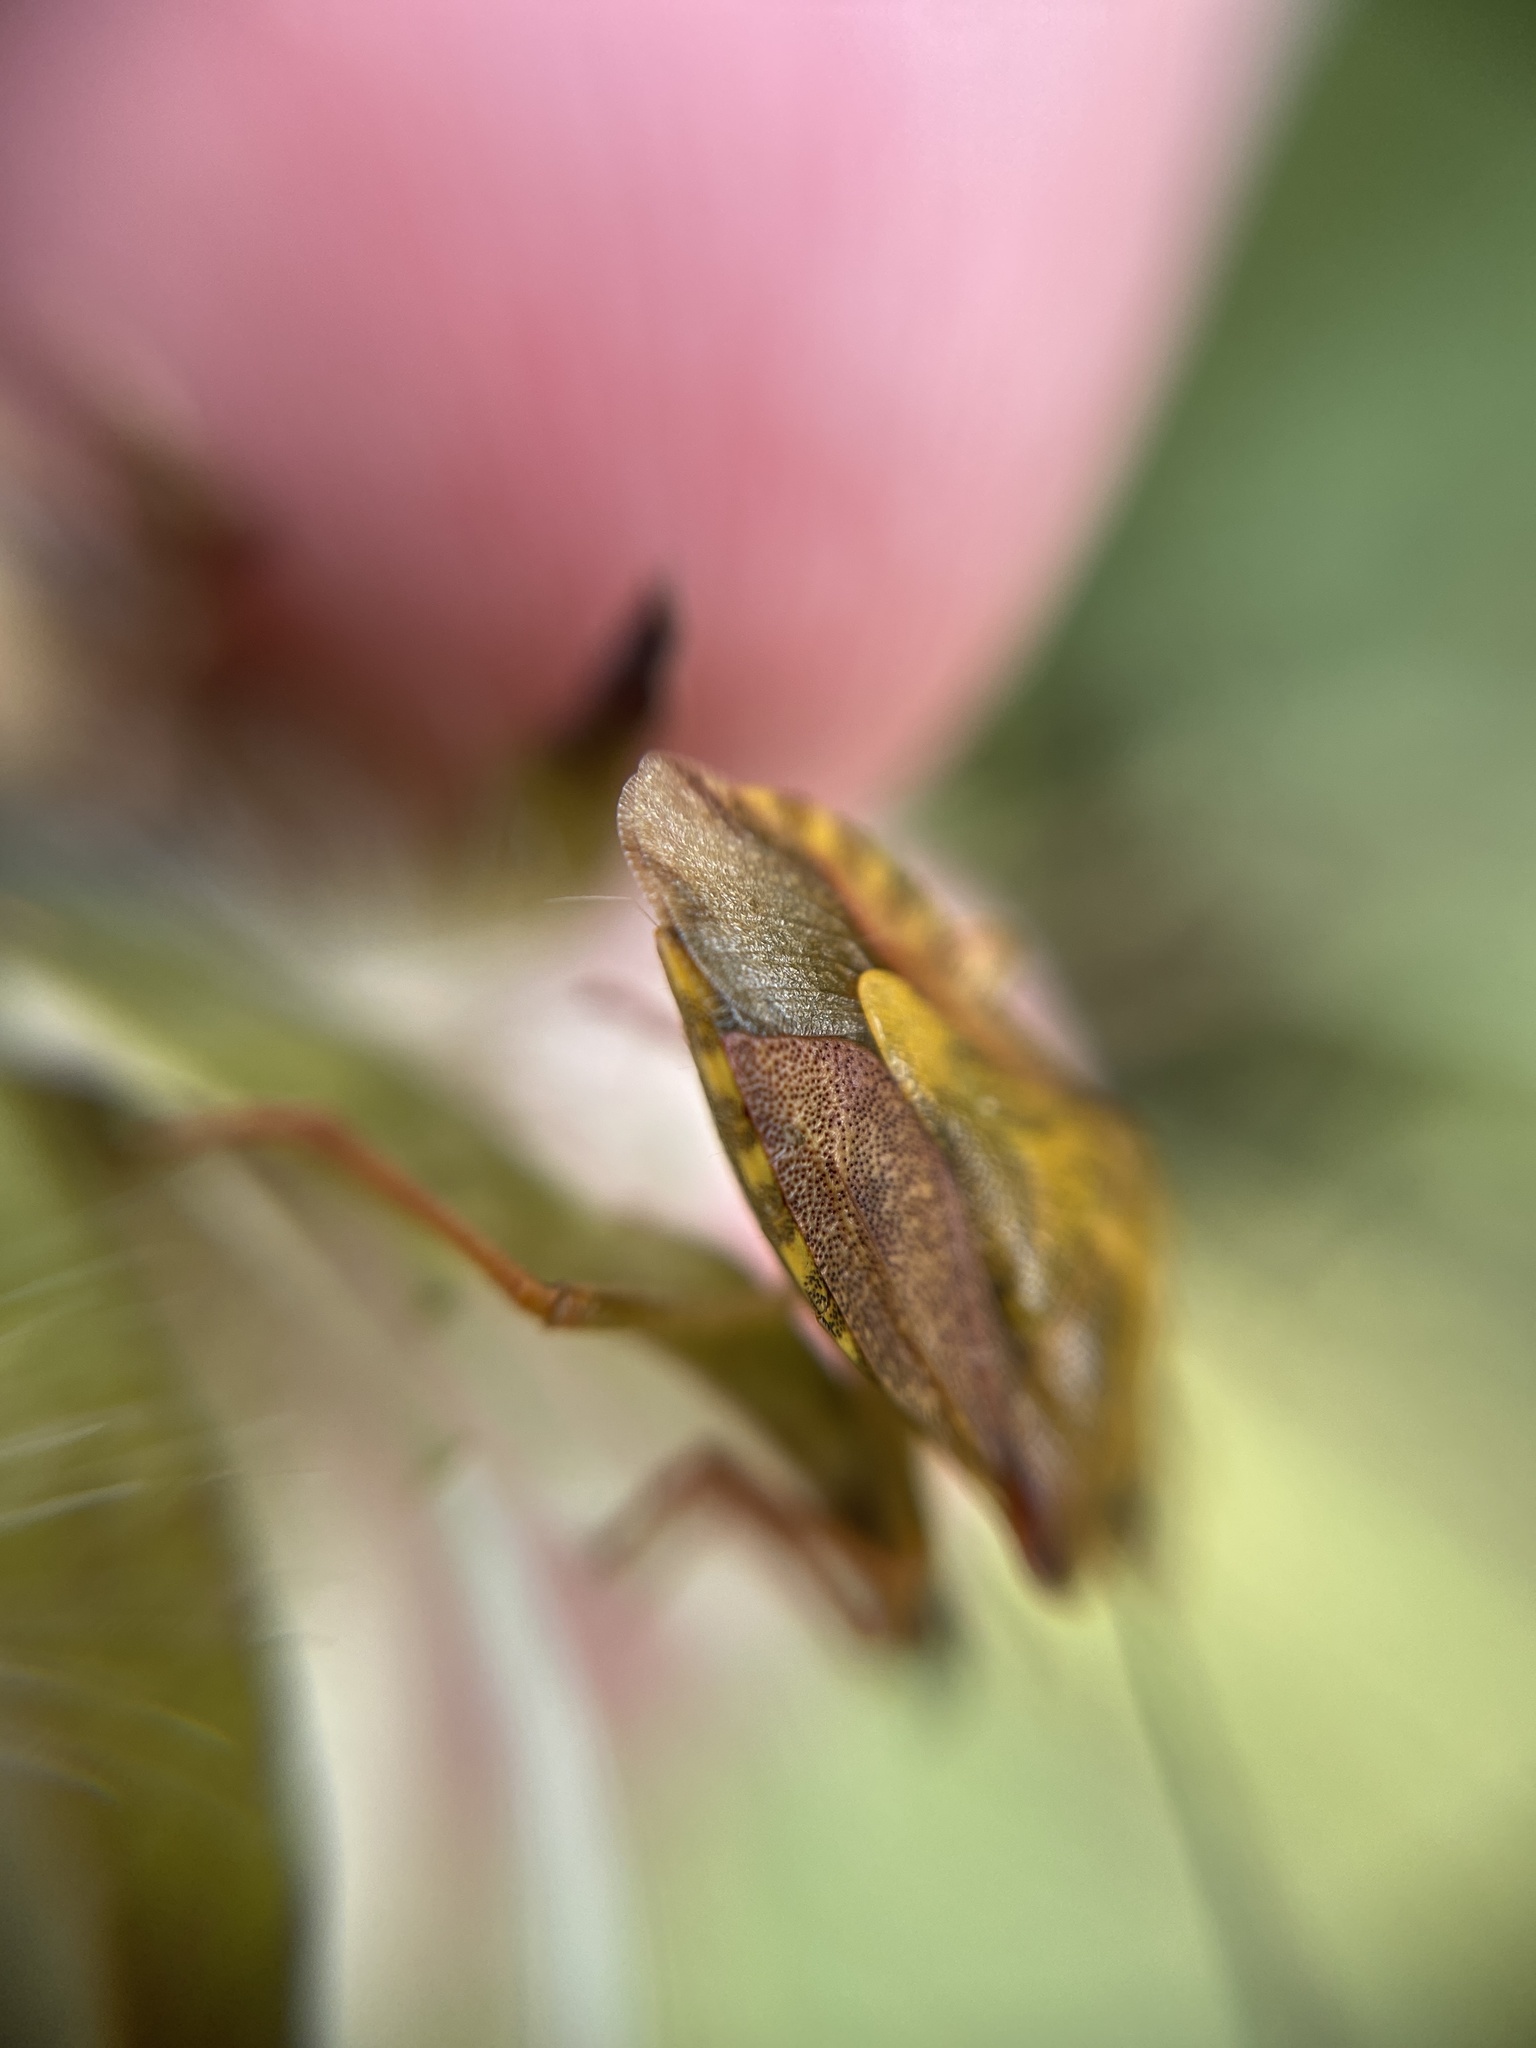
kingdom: Animalia
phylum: Arthropoda
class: Insecta
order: Hemiptera
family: Pentatomidae
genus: Carpocoris
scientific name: Carpocoris purpureipennis
